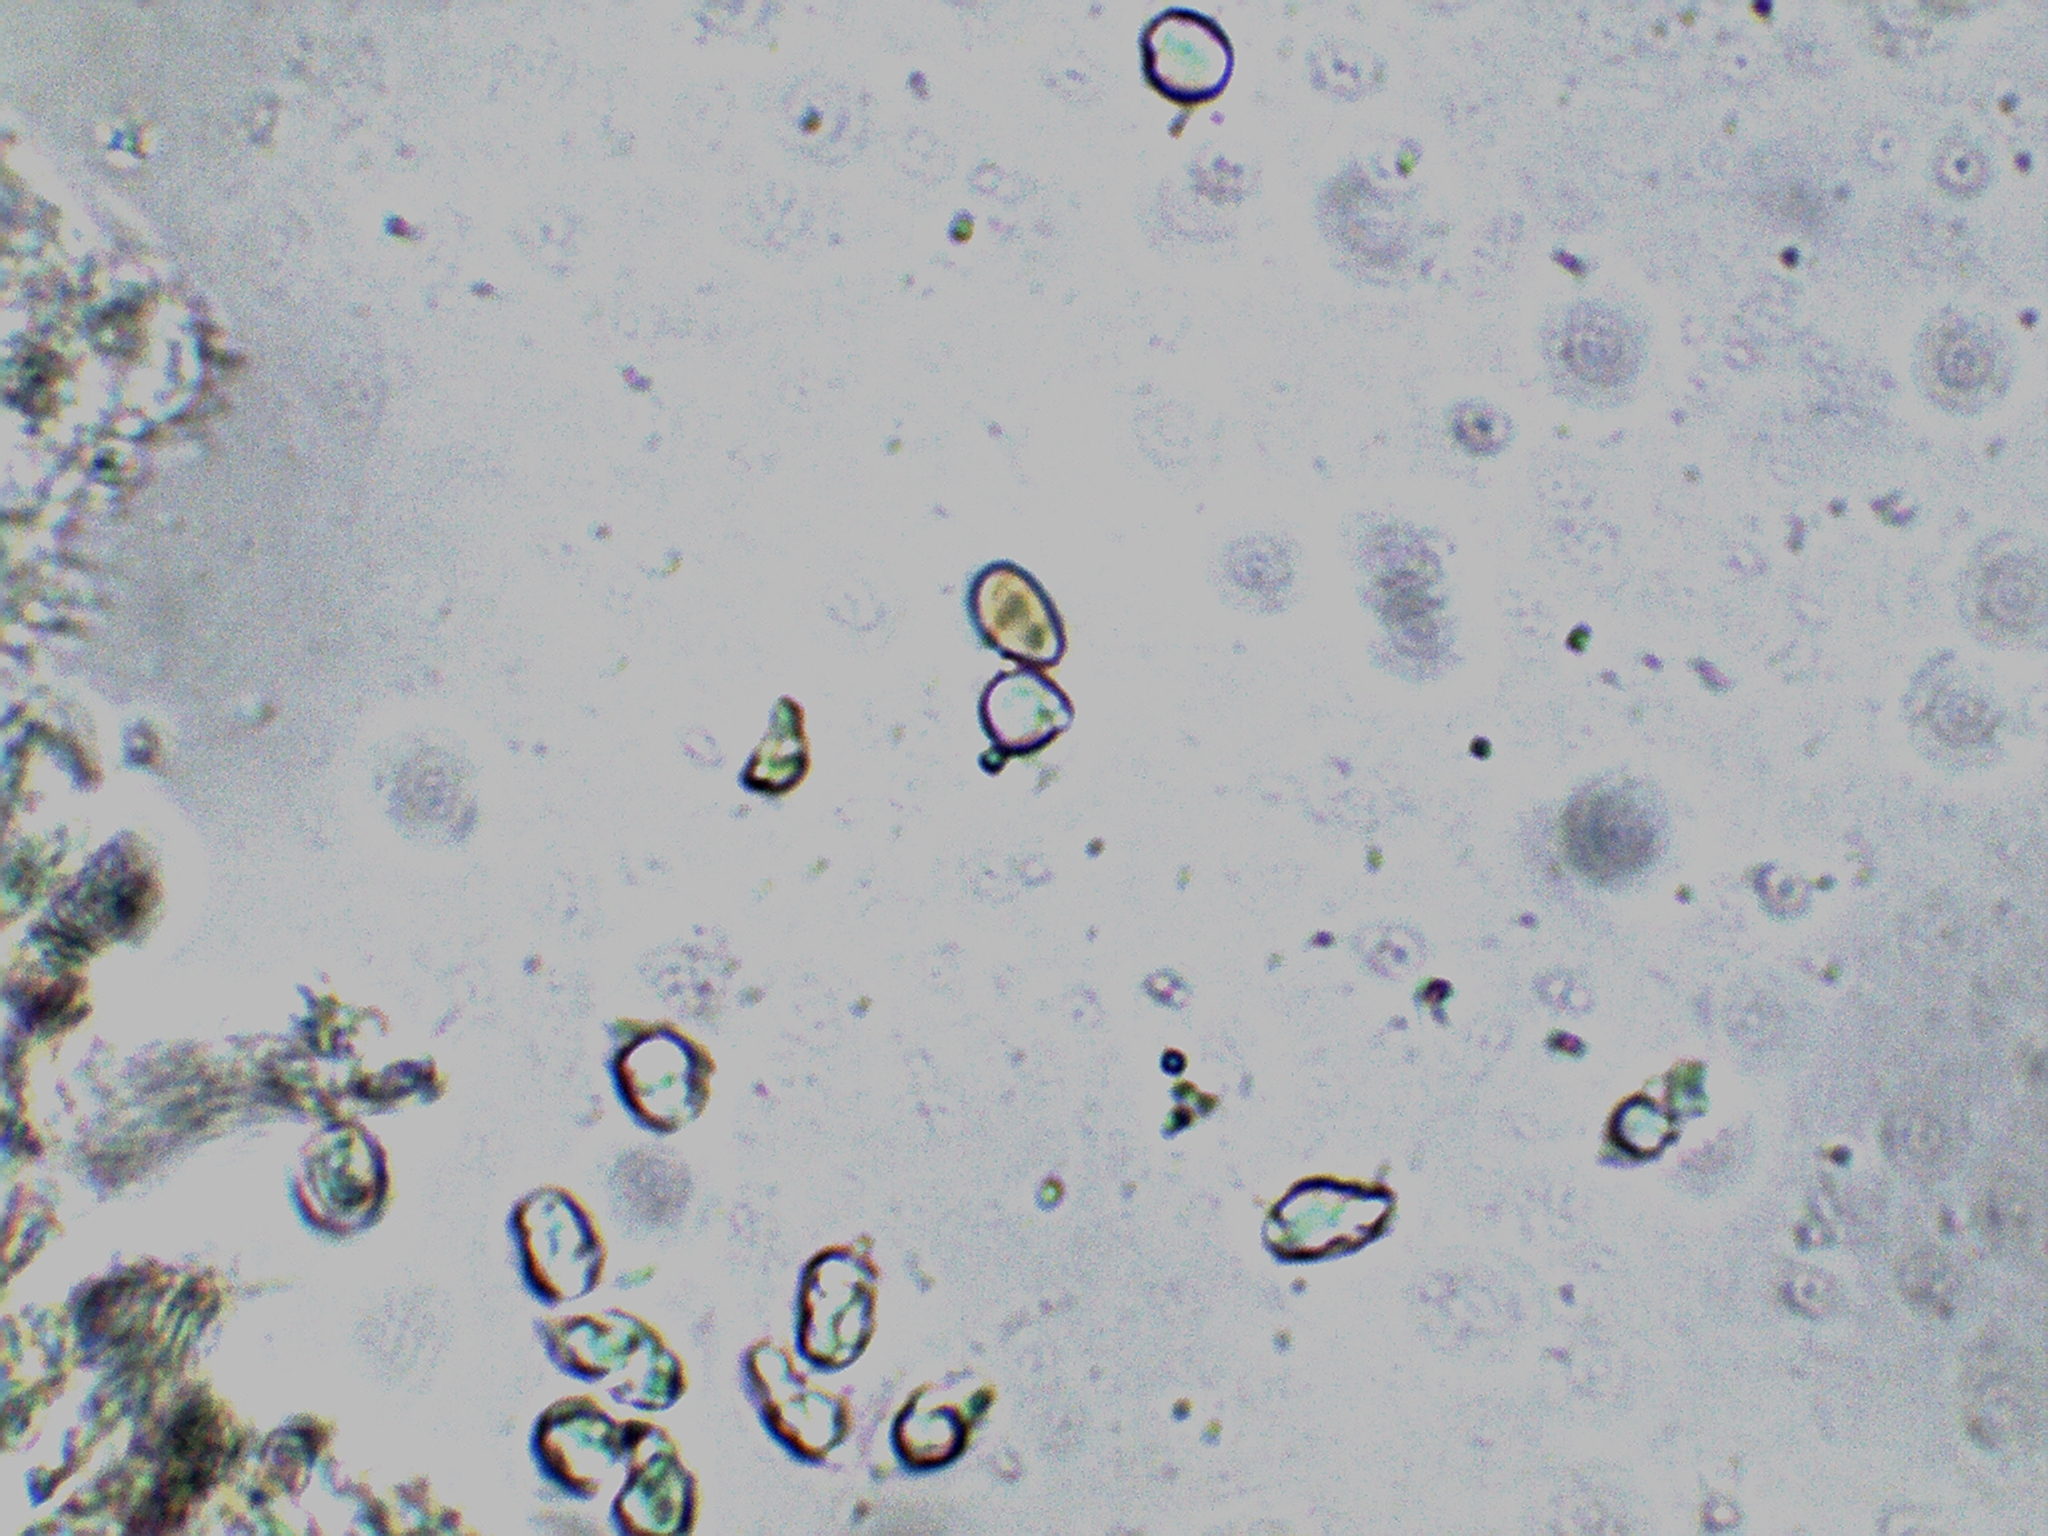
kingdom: Fungi
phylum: Basidiomycota
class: Agaricomycetes
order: Agaricales
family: Mycenaceae
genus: Mycena
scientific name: Mycena vitilis
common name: Snapping bonnet
